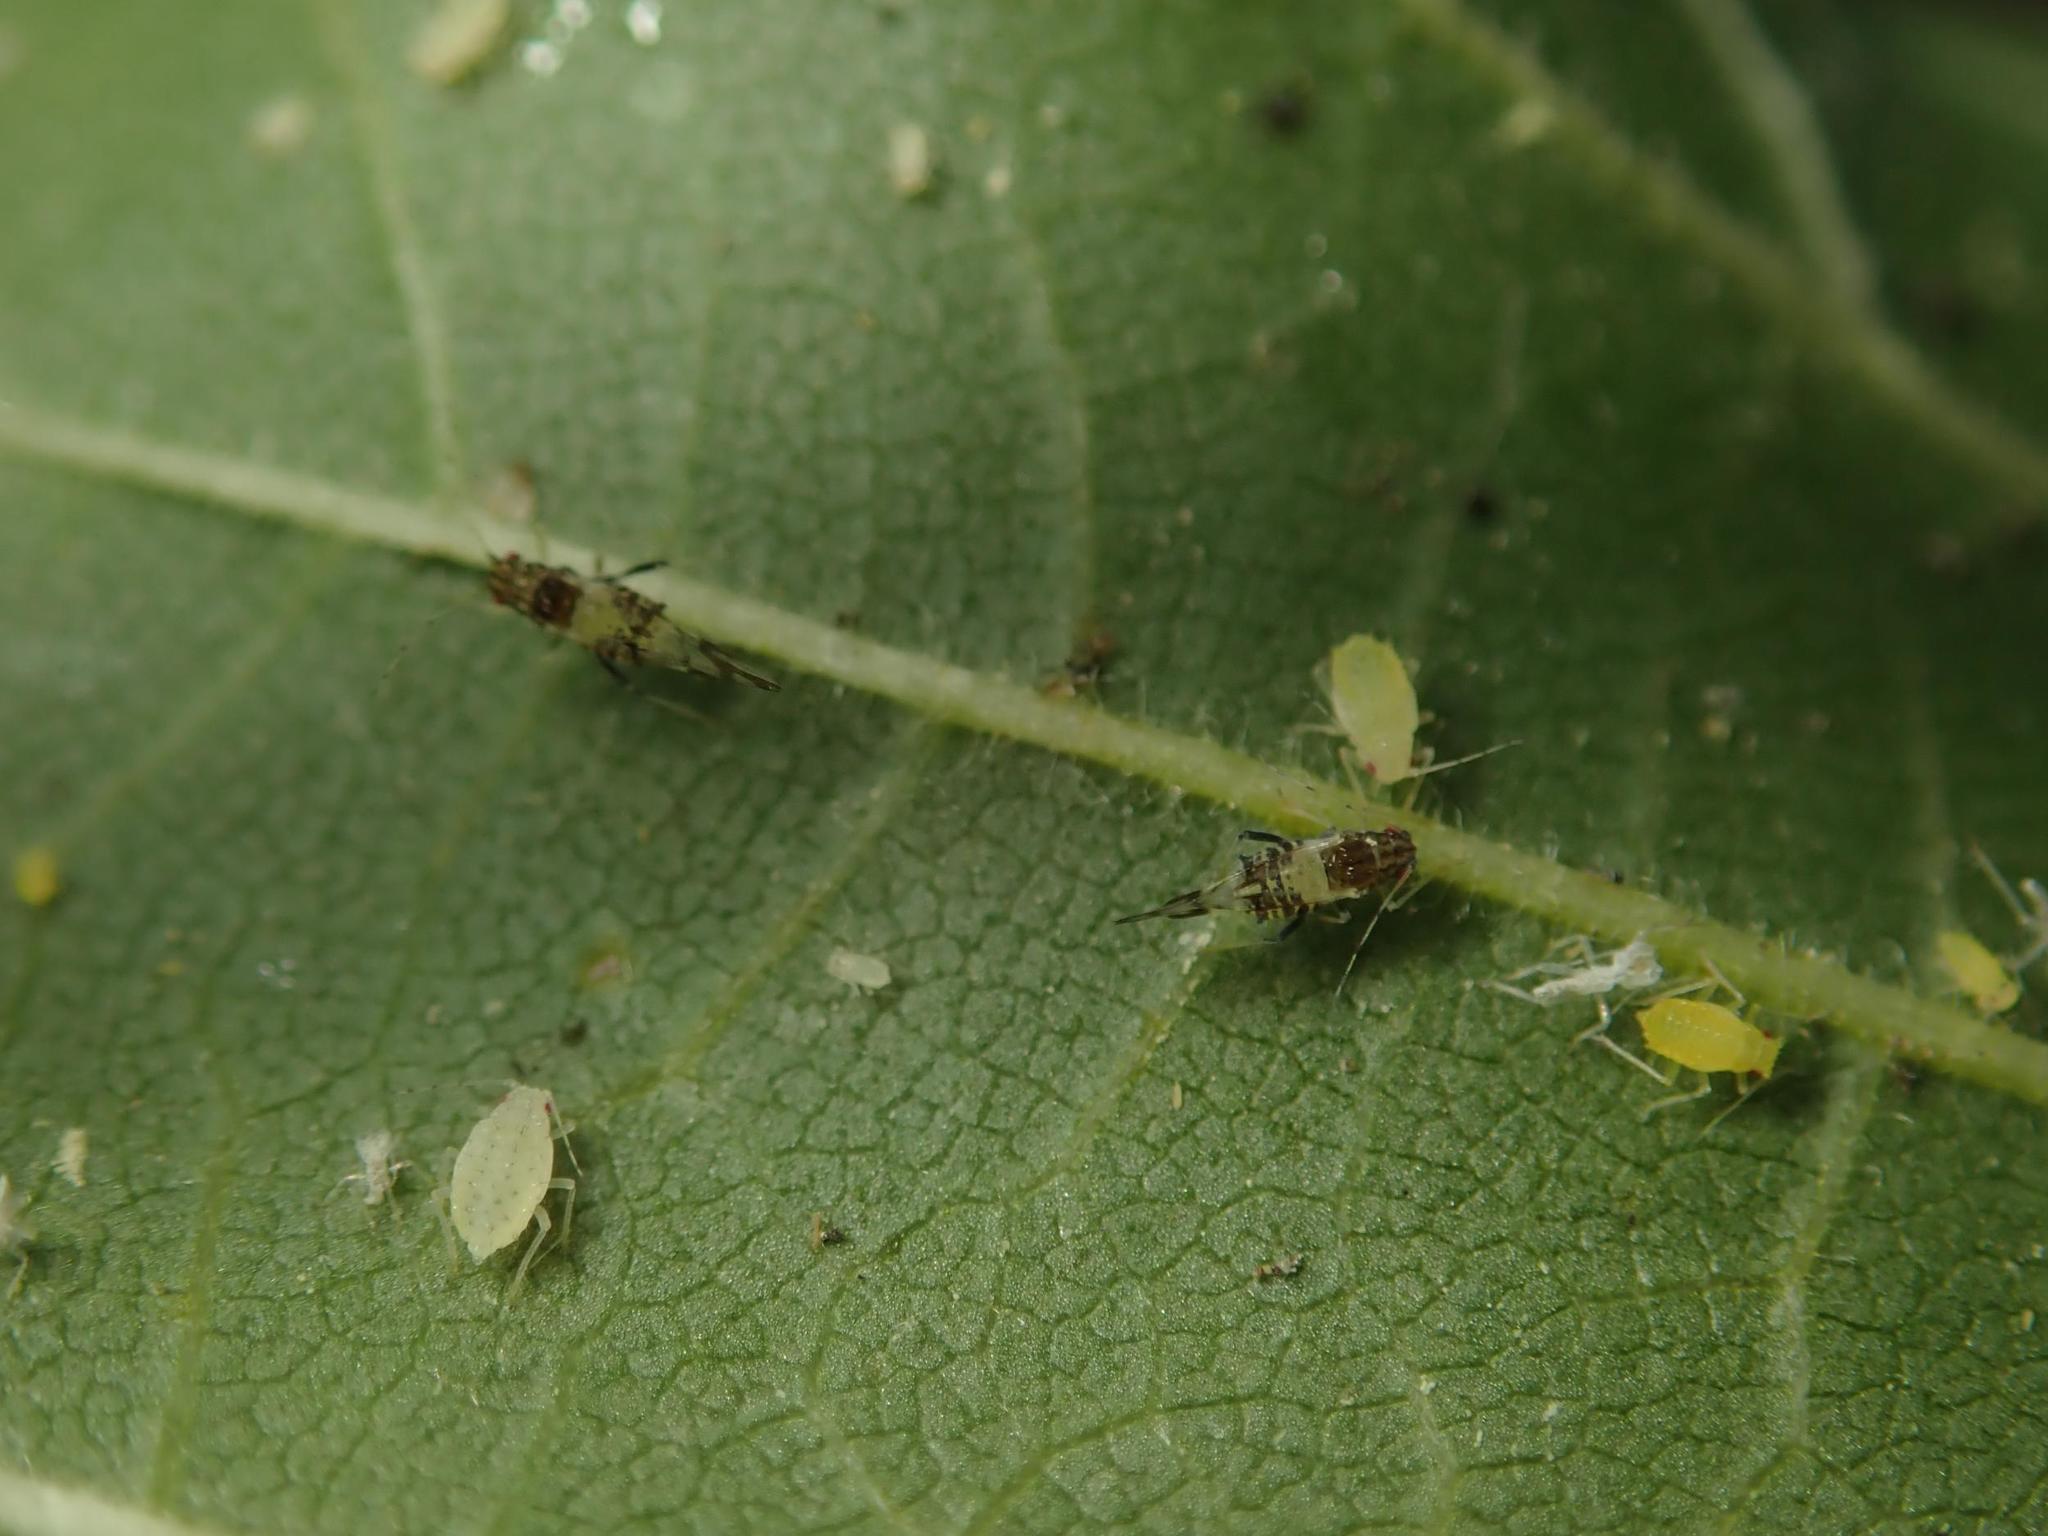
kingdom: Animalia
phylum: Arthropoda
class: Insecta
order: Hemiptera
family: Aphididae
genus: Tinocallis
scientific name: Tinocallis platani
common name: Elm aphid
